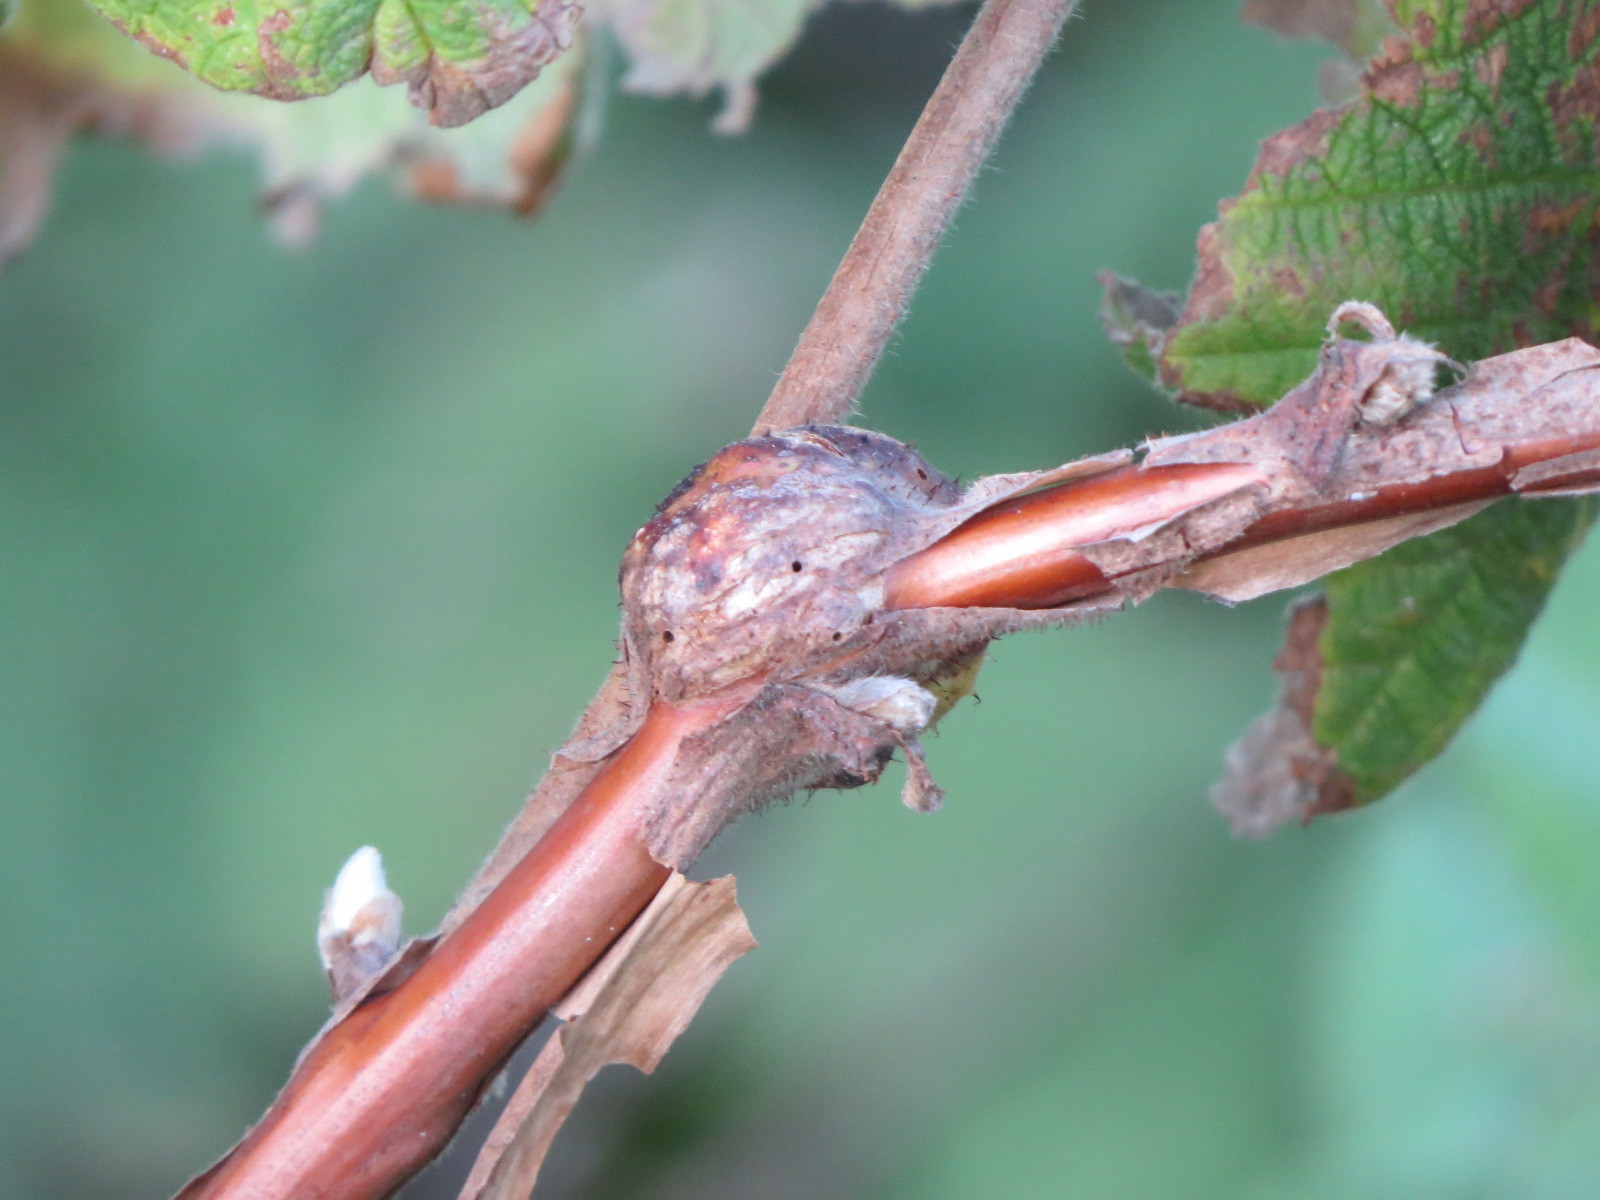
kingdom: Animalia
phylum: Arthropoda
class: Insecta
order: Hymenoptera
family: Cynipidae
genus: Diastrophus
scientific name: Diastrophus
